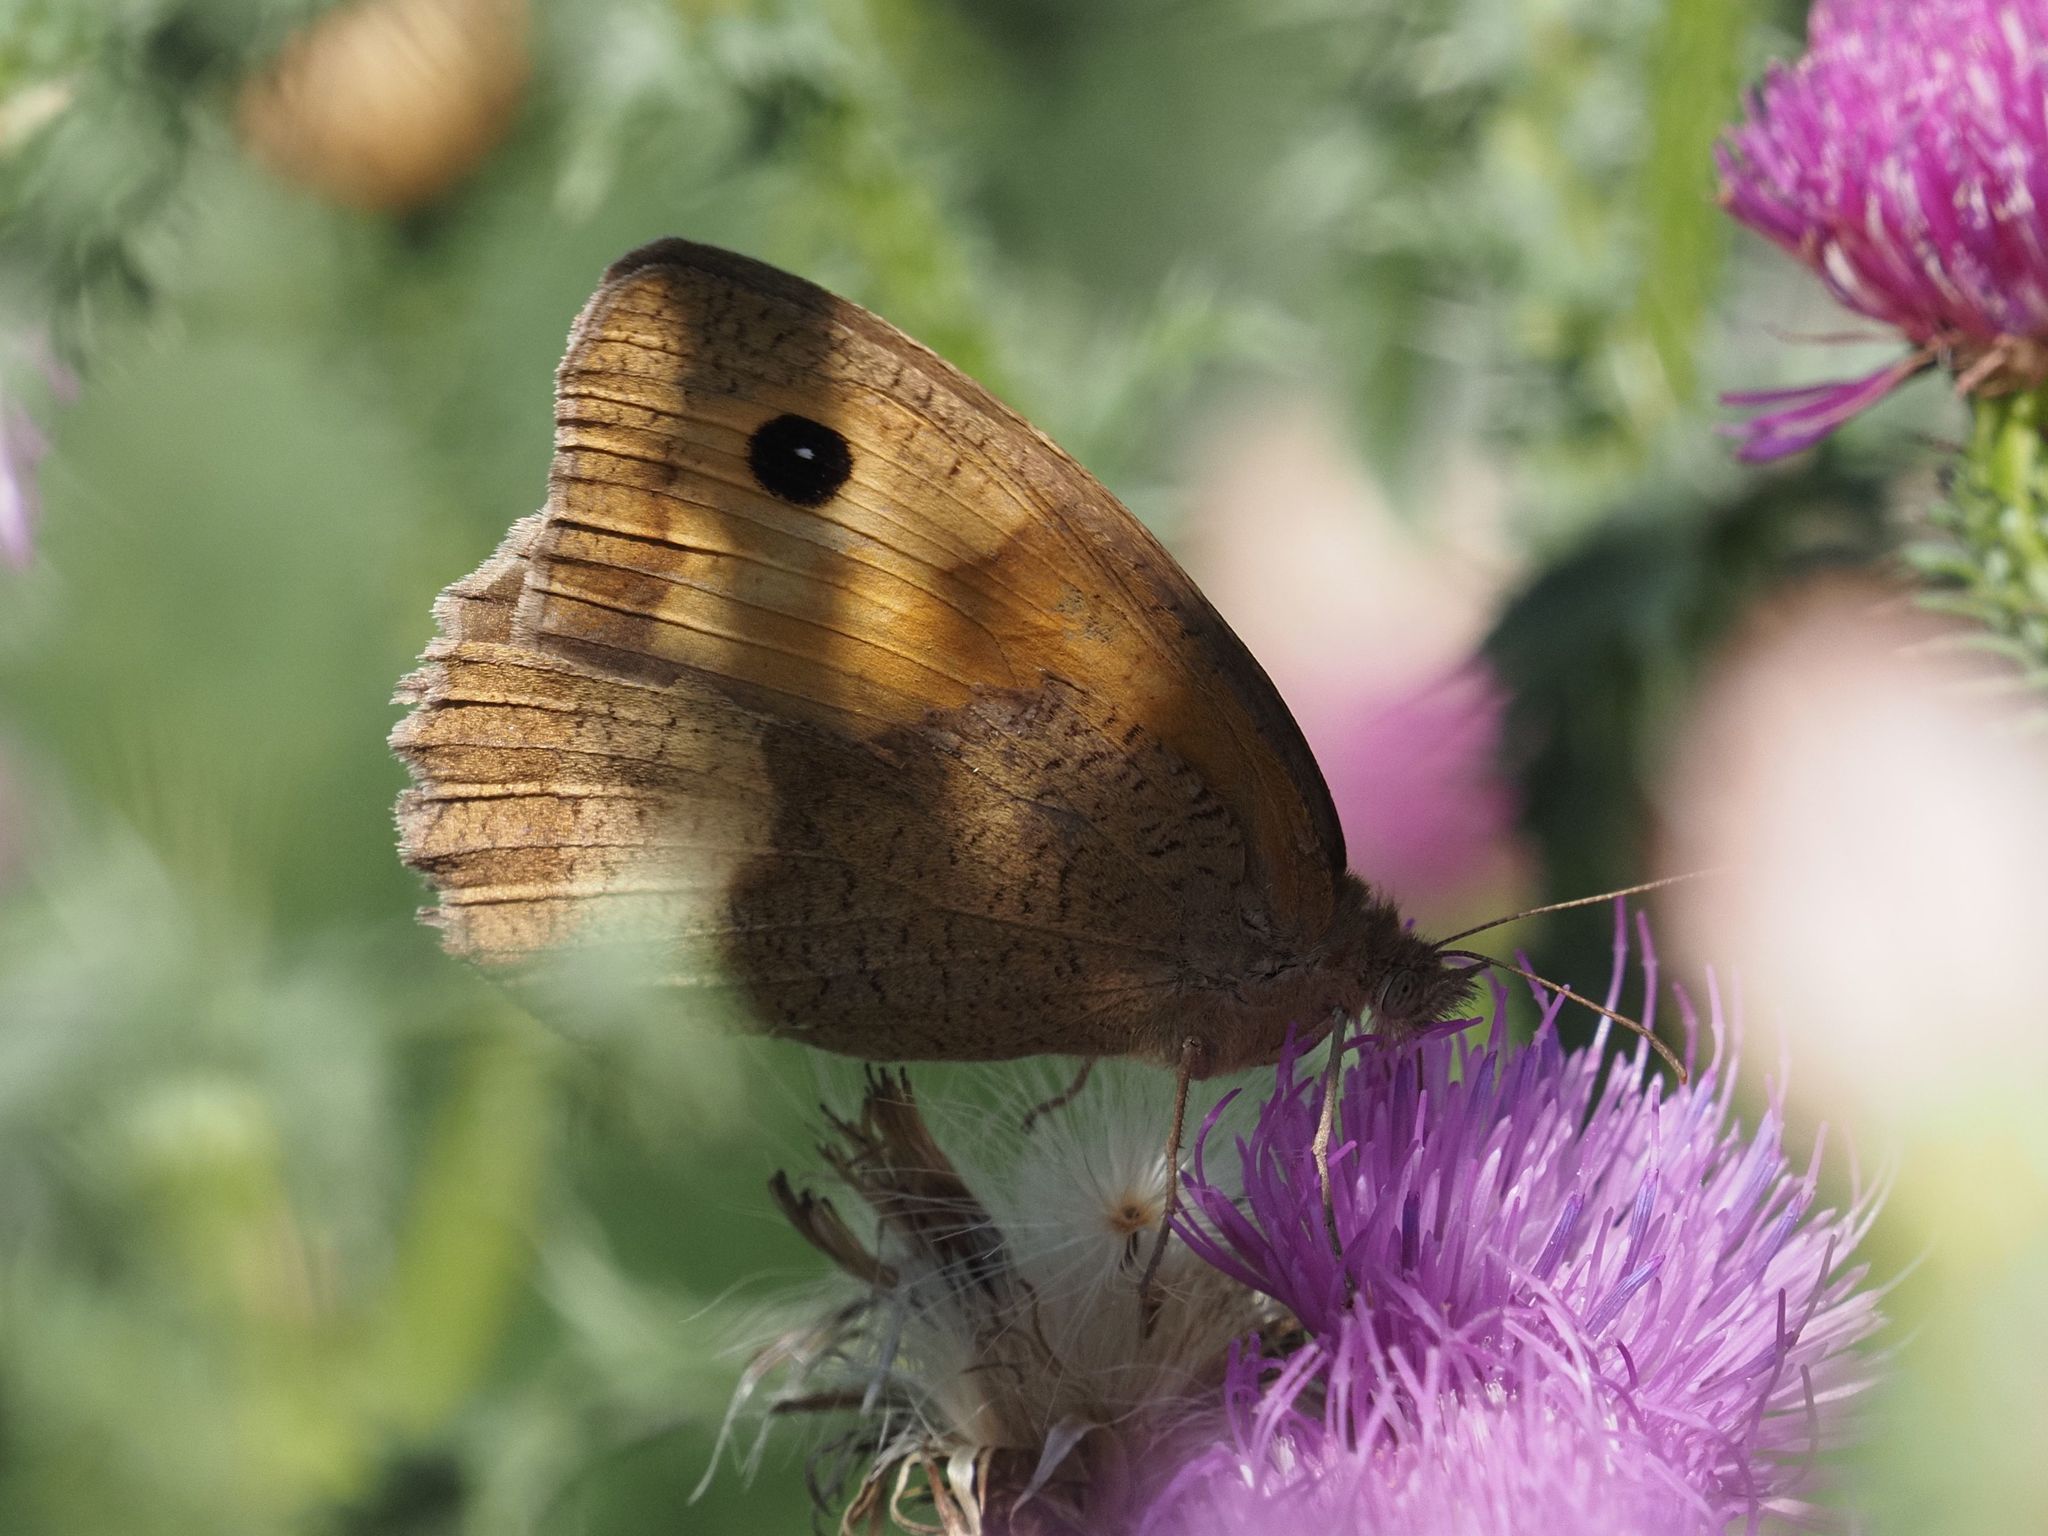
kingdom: Animalia
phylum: Arthropoda
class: Insecta
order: Lepidoptera
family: Nymphalidae
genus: Maniola
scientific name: Maniola jurtina
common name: Meadow brown
